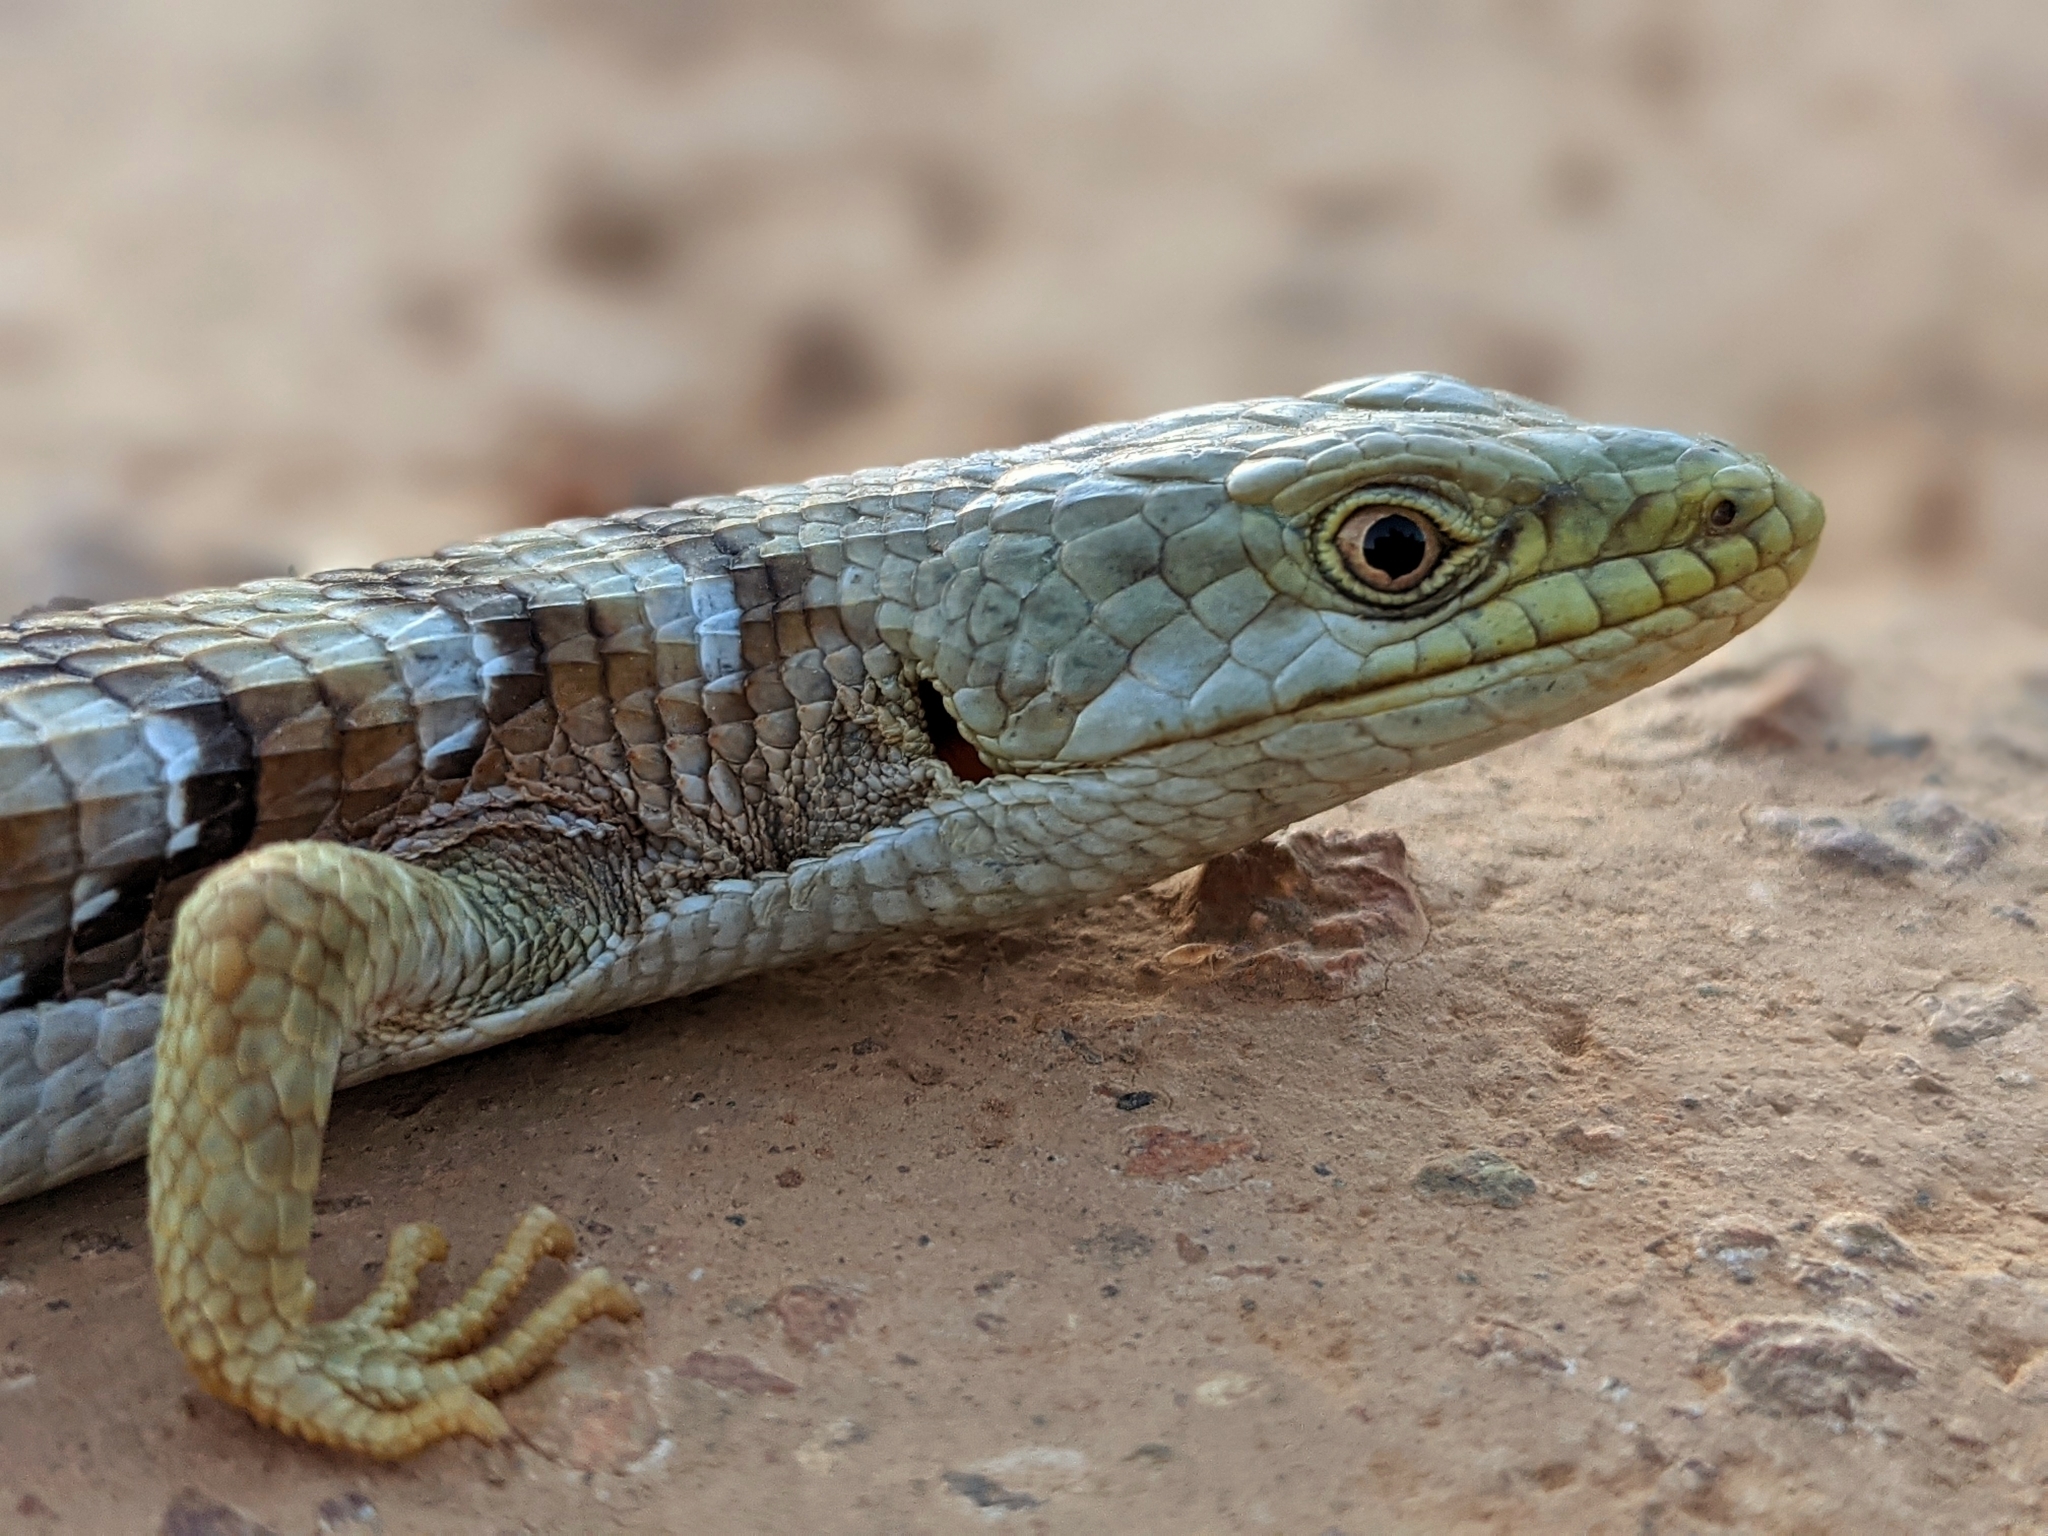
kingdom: Animalia
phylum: Chordata
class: Squamata
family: Anguidae
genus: Elgaria
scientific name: Elgaria multicarinata
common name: Southern alligator lizard
